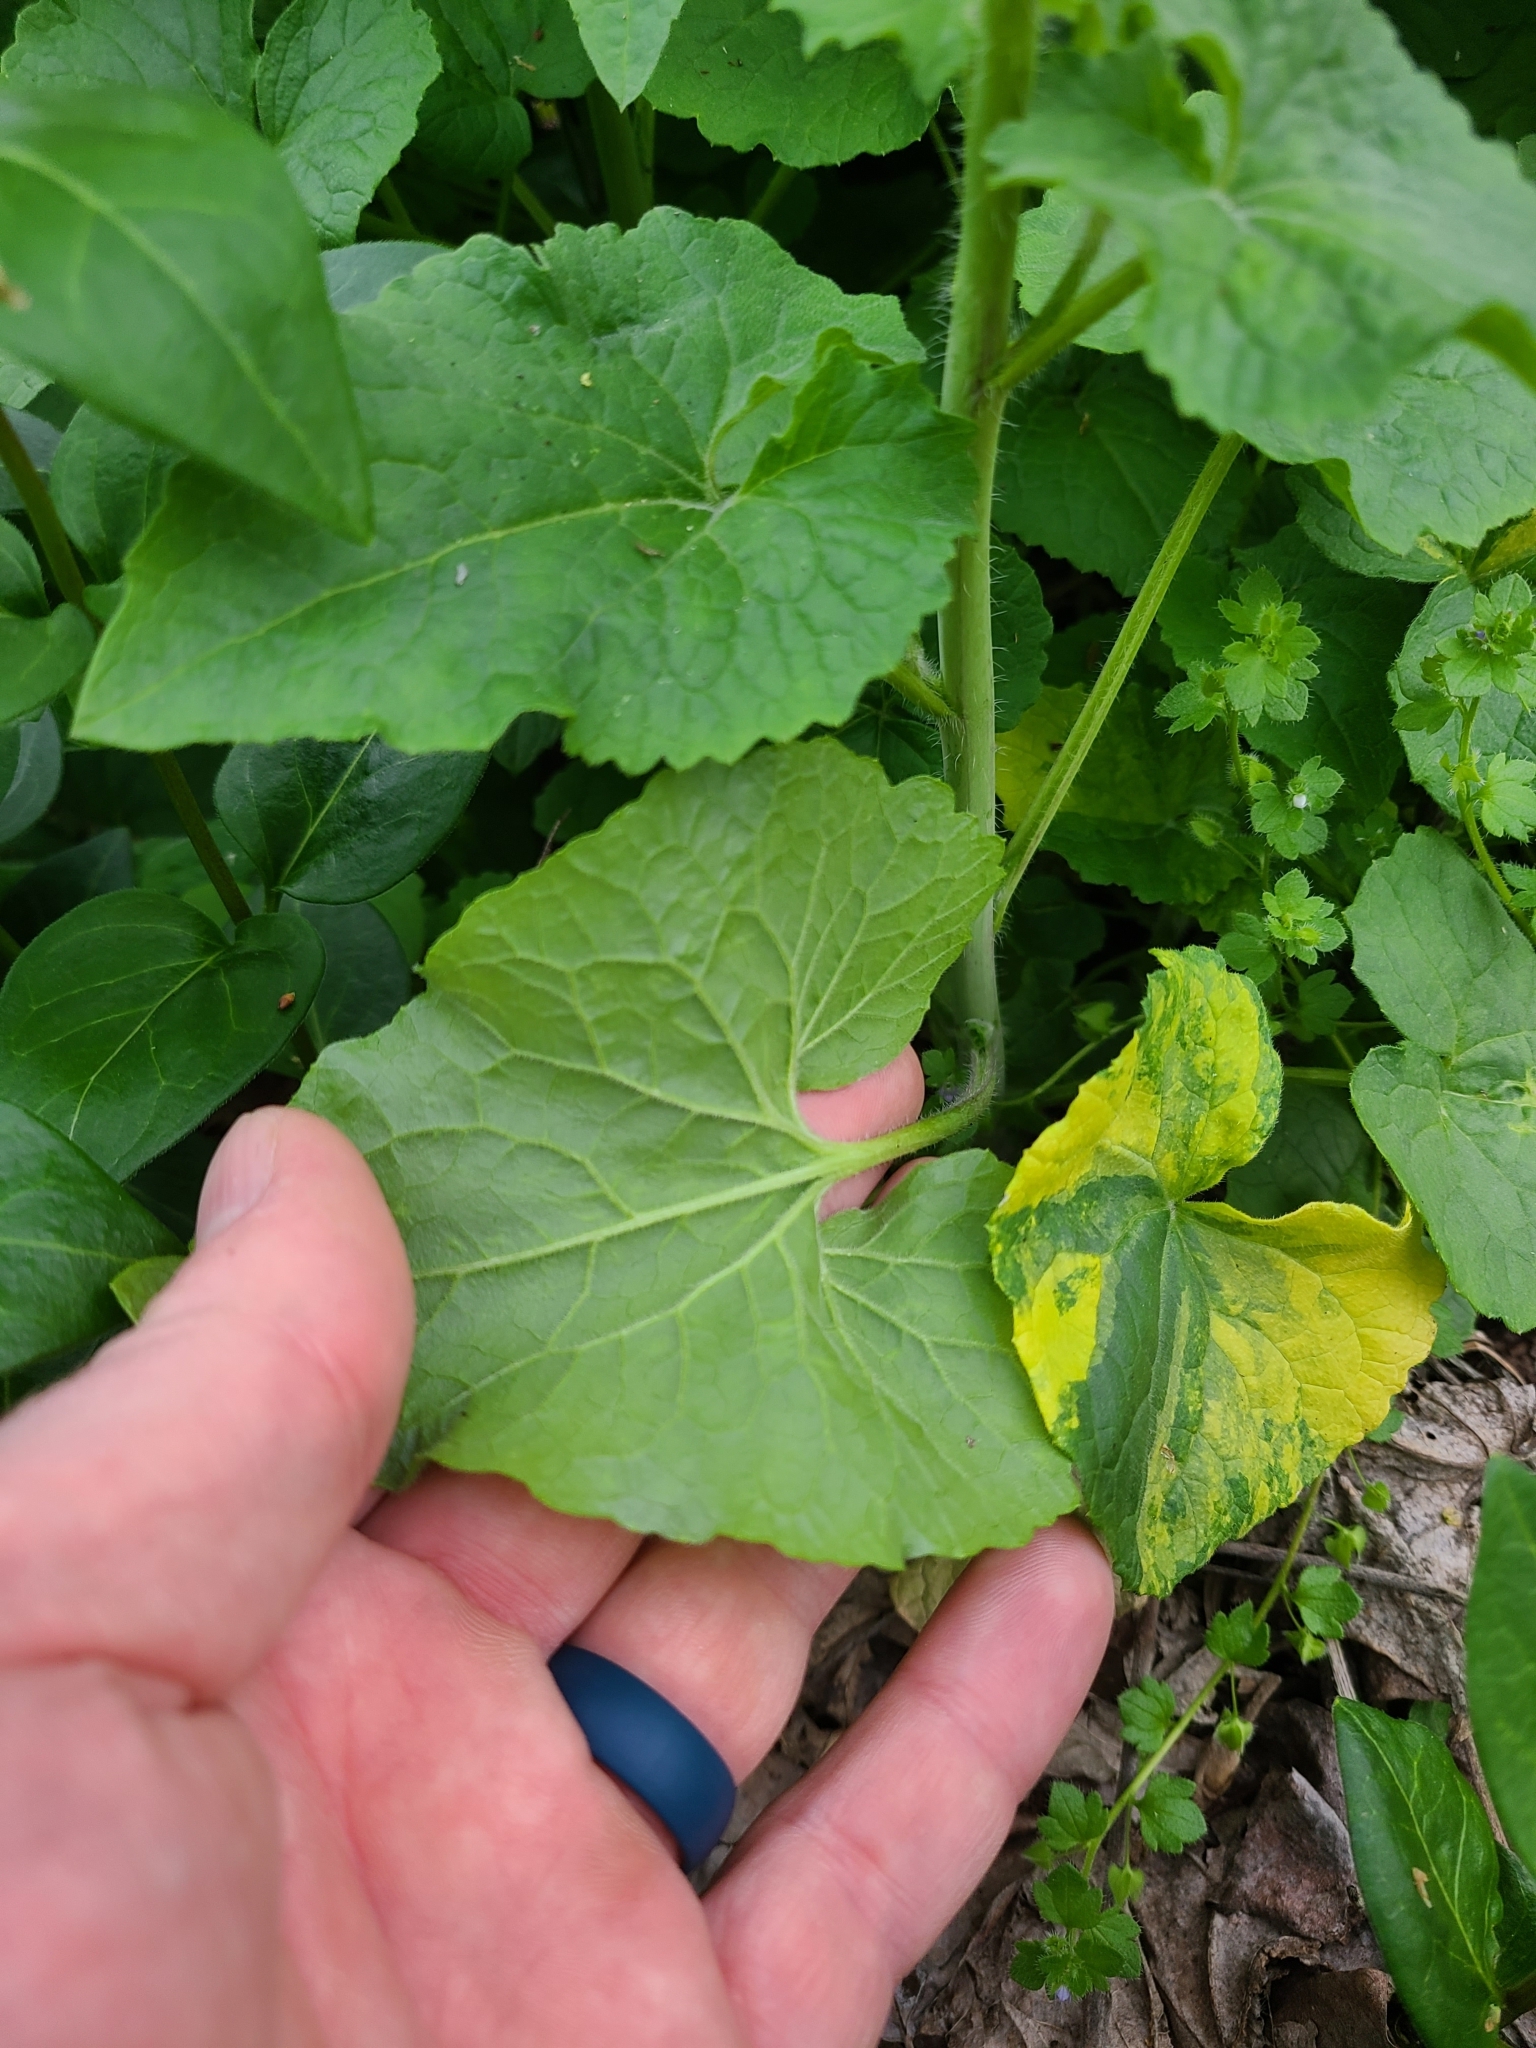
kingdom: Plantae
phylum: Tracheophyta
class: Magnoliopsida
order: Brassicales
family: Brassicaceae
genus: Lunaria
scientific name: Lunaria annua
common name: Honesty
